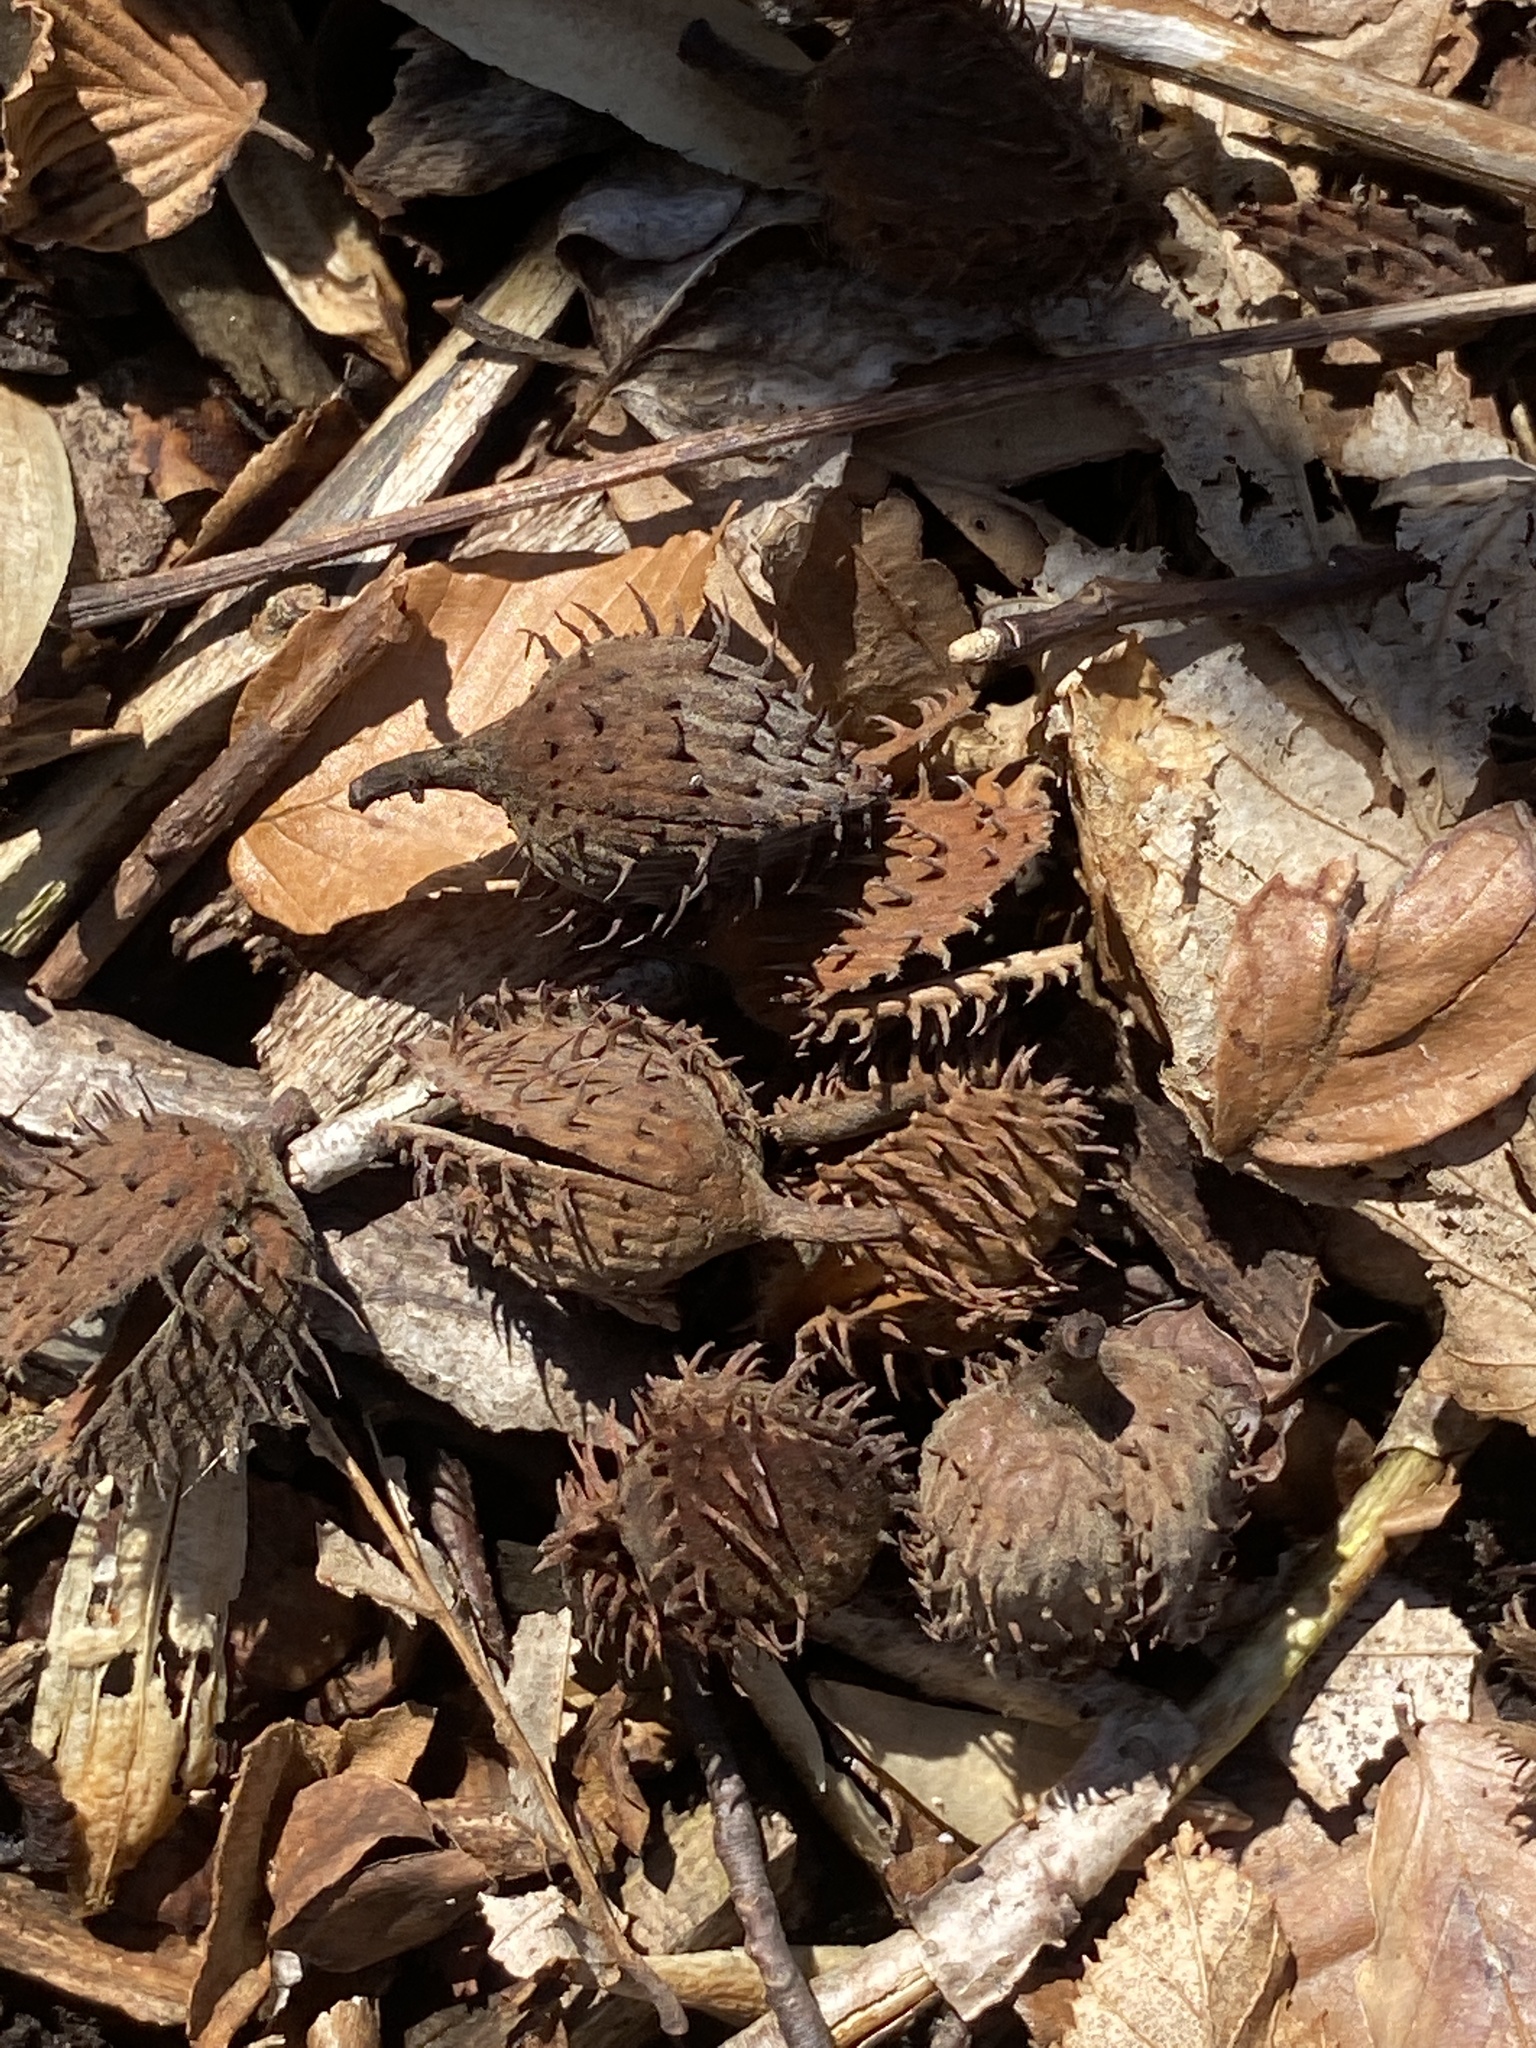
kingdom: Plantae
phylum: Tracheophyta
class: Magnoliopsida
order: Fagales
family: Fagaceae
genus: Fagus
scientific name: Fagus grandifolia
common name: American beech
